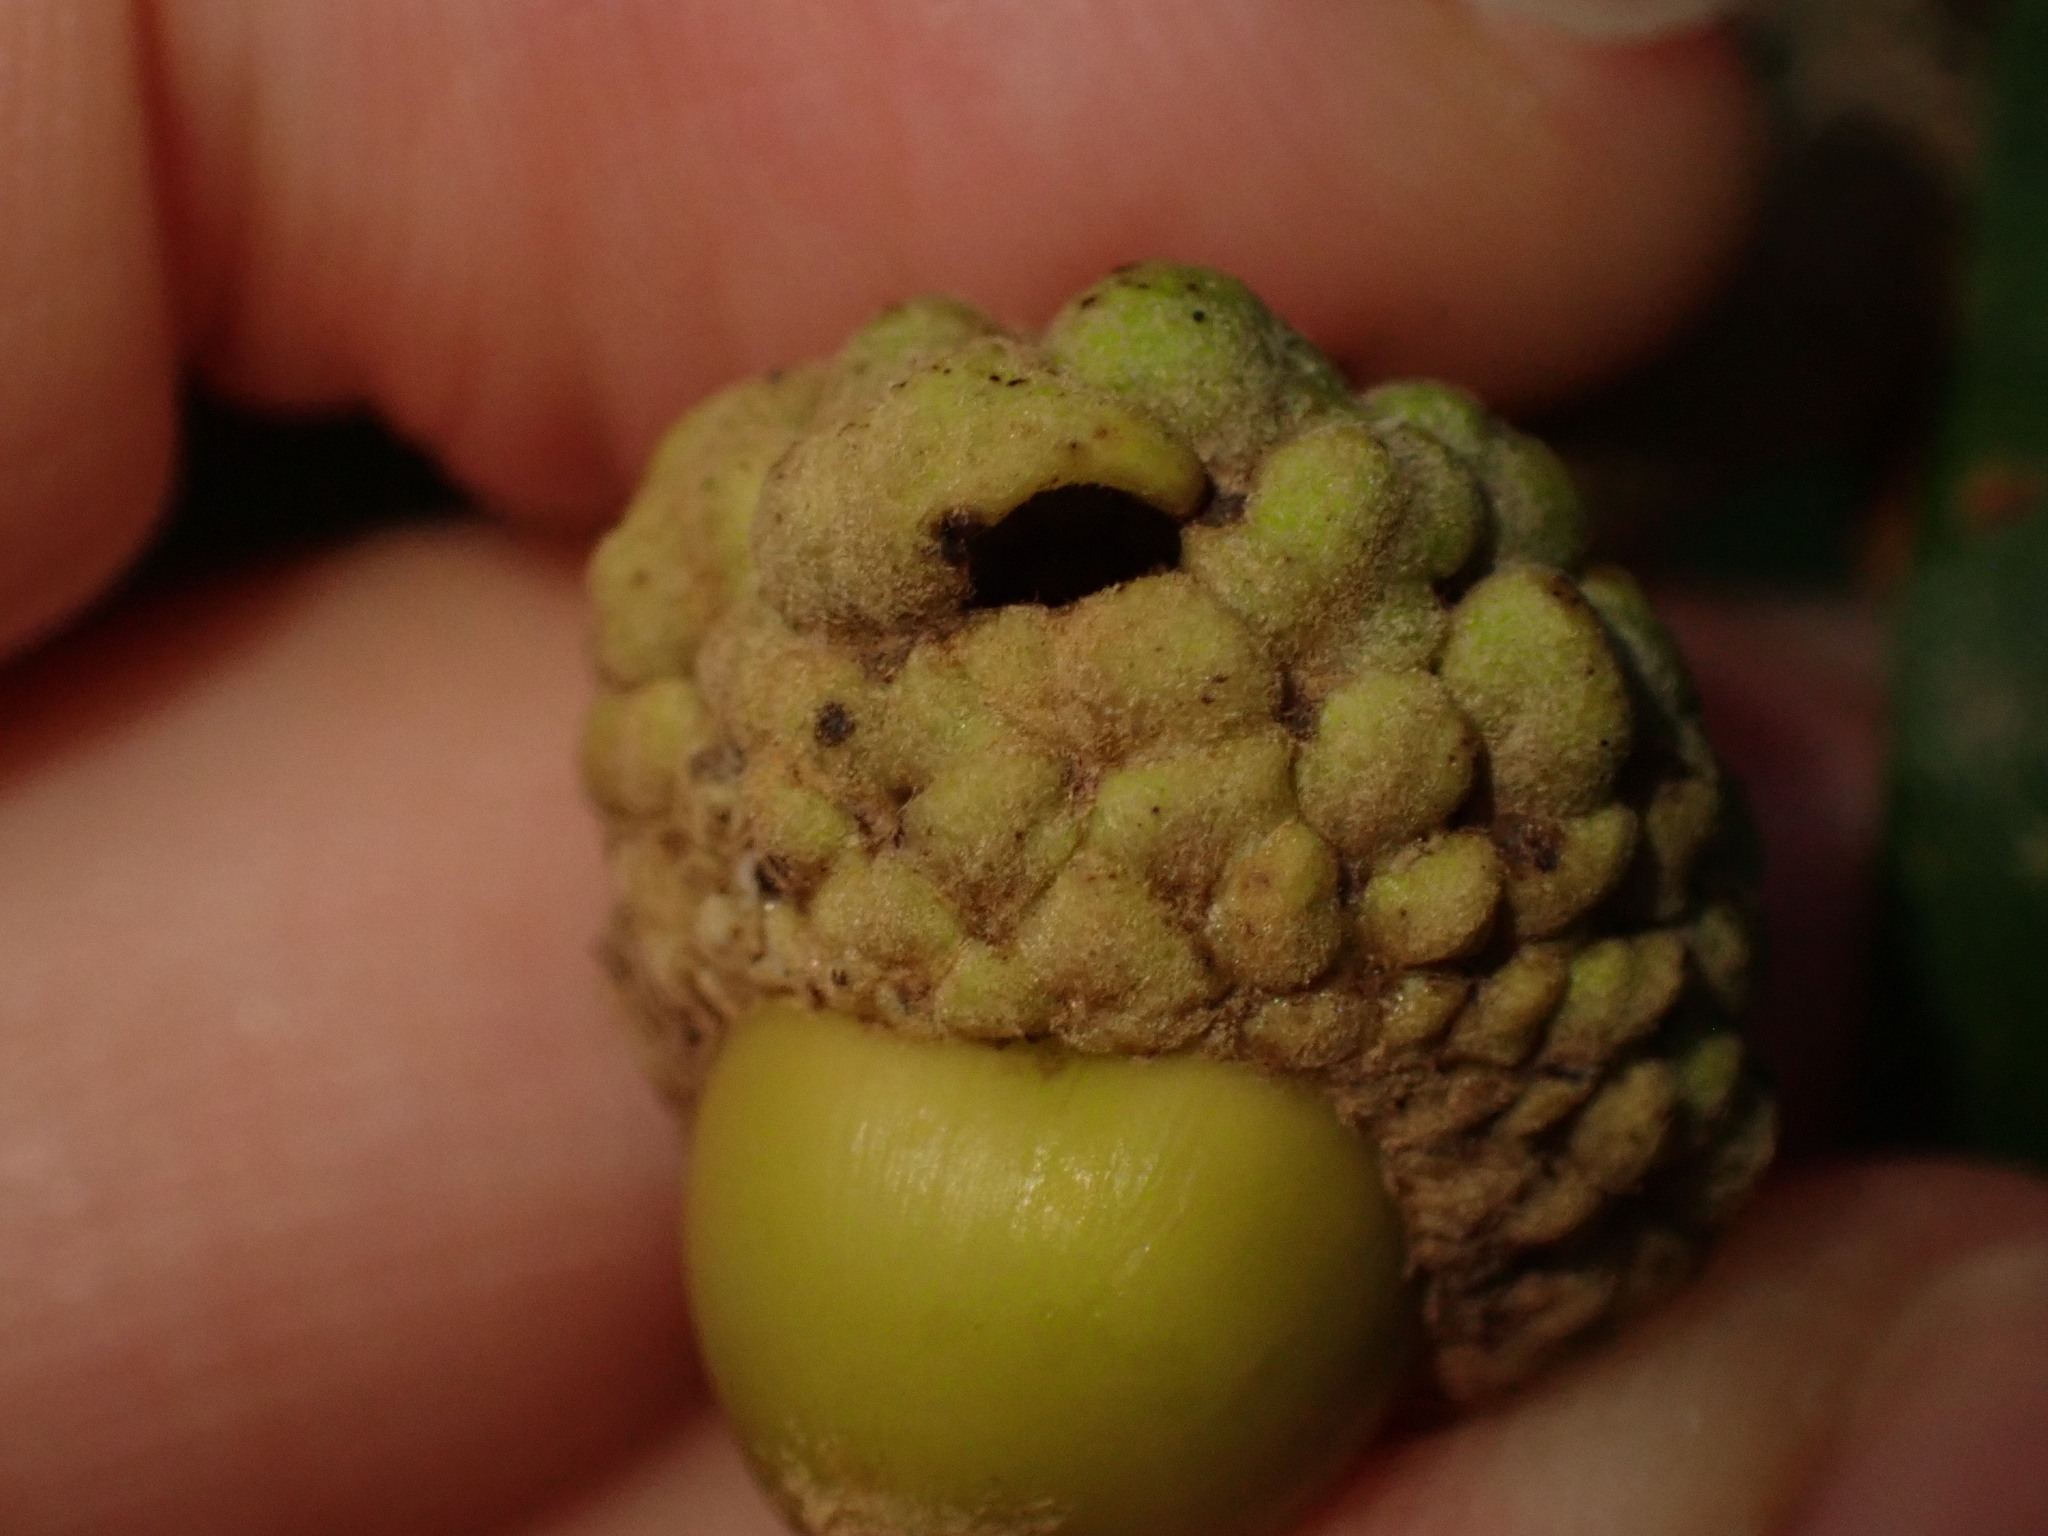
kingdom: Animalia
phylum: Arthropoda
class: Insecta
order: Hymenoptera
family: Cynipidae
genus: Callirhytis
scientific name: Callirhytis glandium
